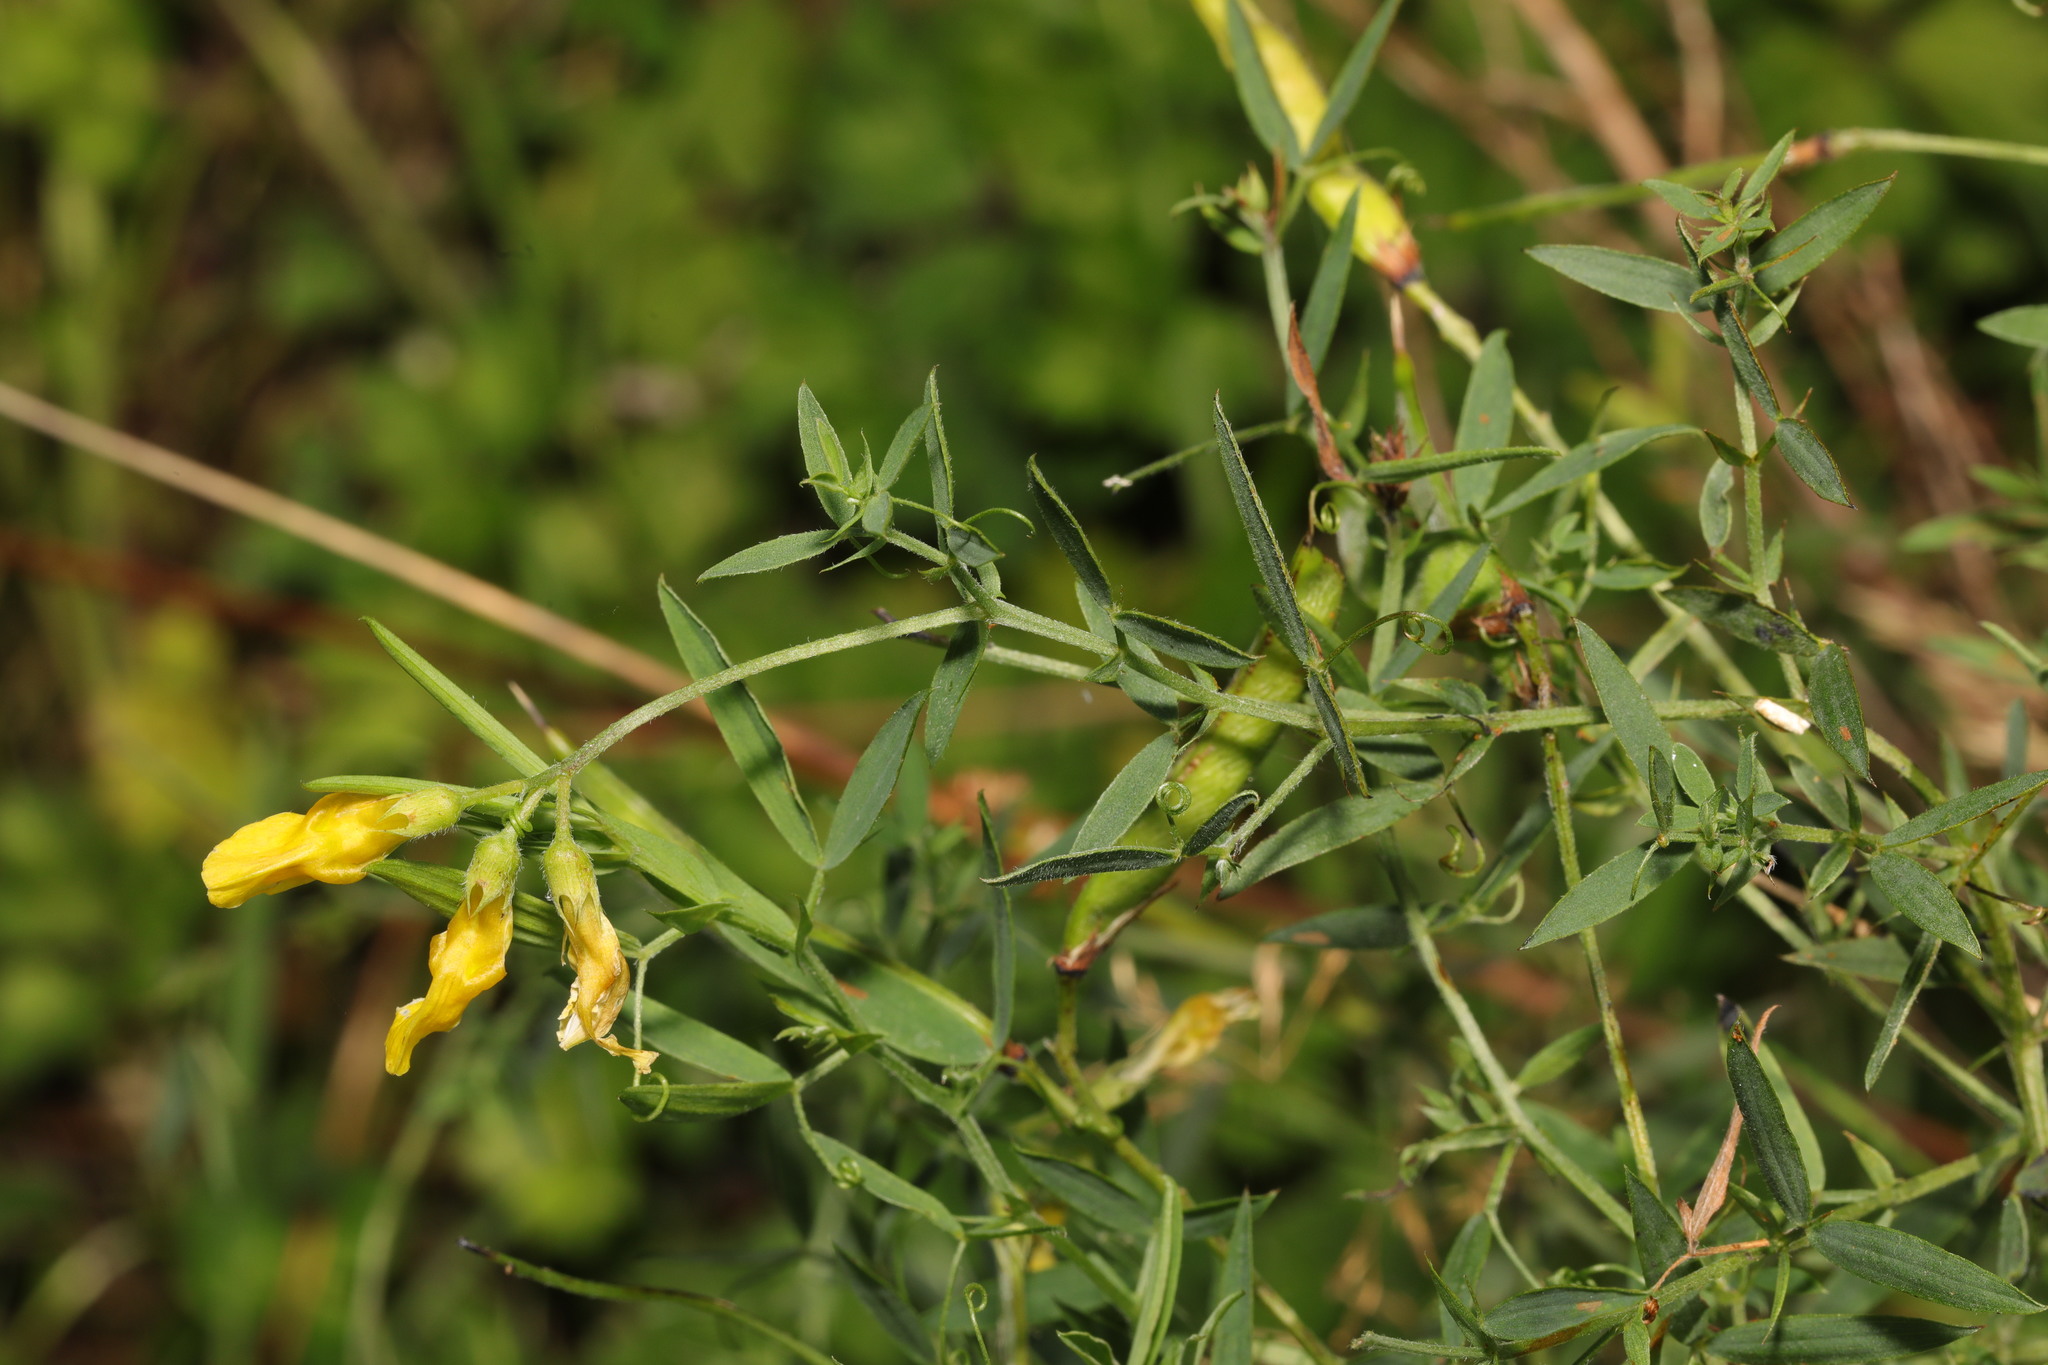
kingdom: Plantae
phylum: Tracheophyta
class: Magnoliopsida
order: Fabales
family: Fabaceae
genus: Lathyrus
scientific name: Lathyrus pratensis
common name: Meadow vetchling
